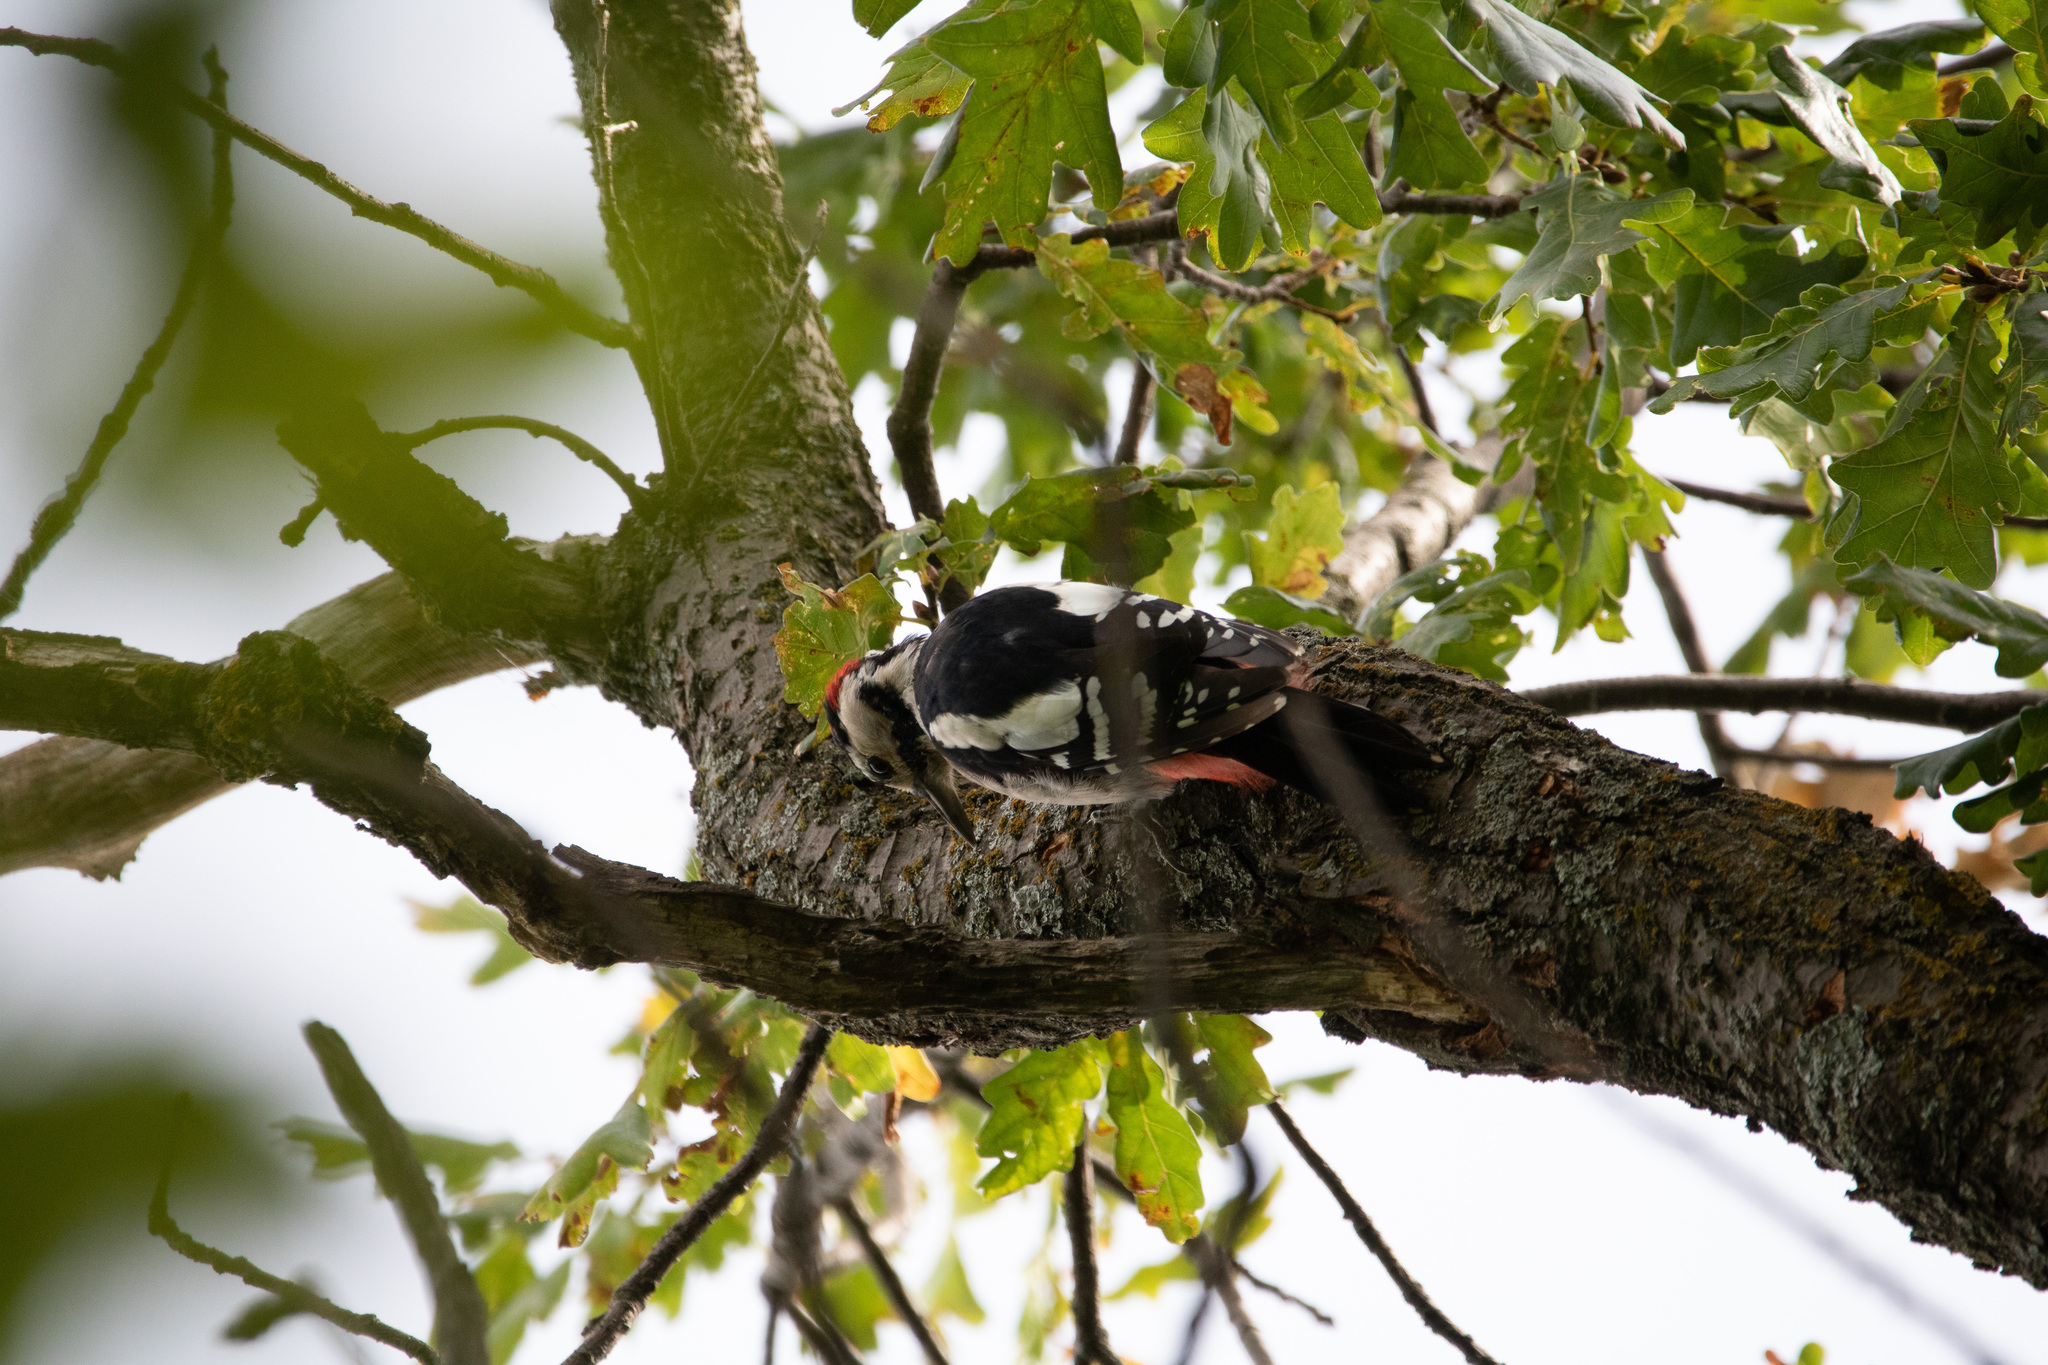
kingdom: Animalia
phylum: Chordata
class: Aves
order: Piciformes
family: Picidae
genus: Dendrocoptes
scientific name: Dendrocoptes medius
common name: Middle spotted woodpecker
